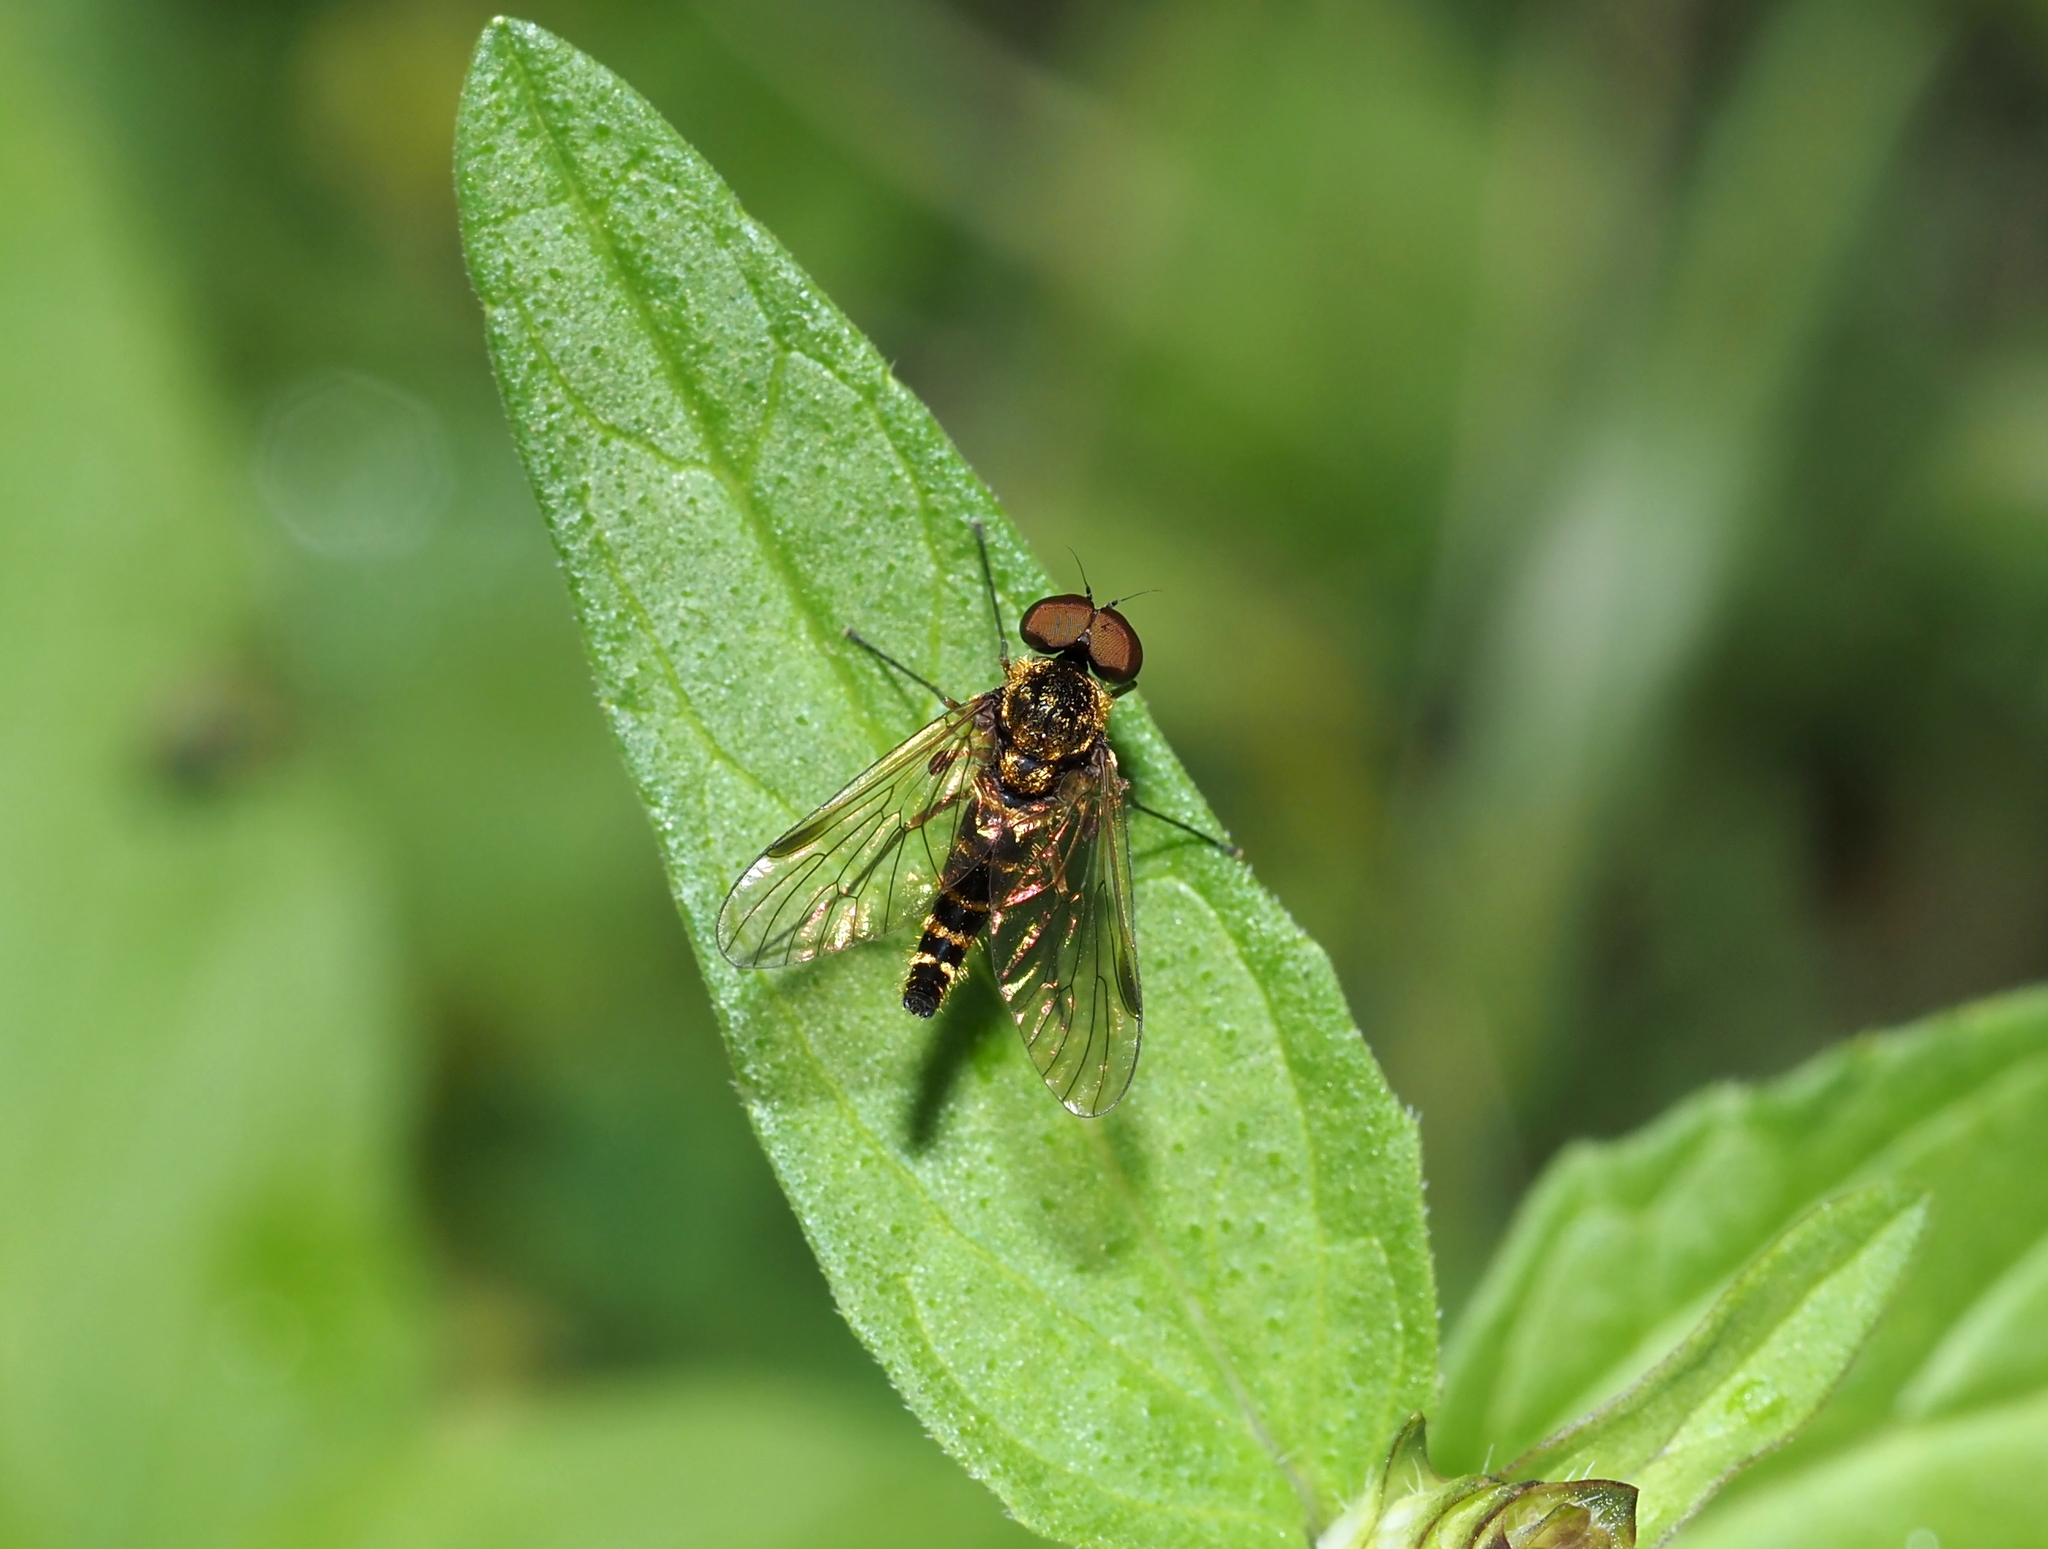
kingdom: Animalia
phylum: Arthropoda
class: Insecta
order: Diptera
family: Rhagionidae
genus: Chrysopilus
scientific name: Chrysopilus fasciatus
